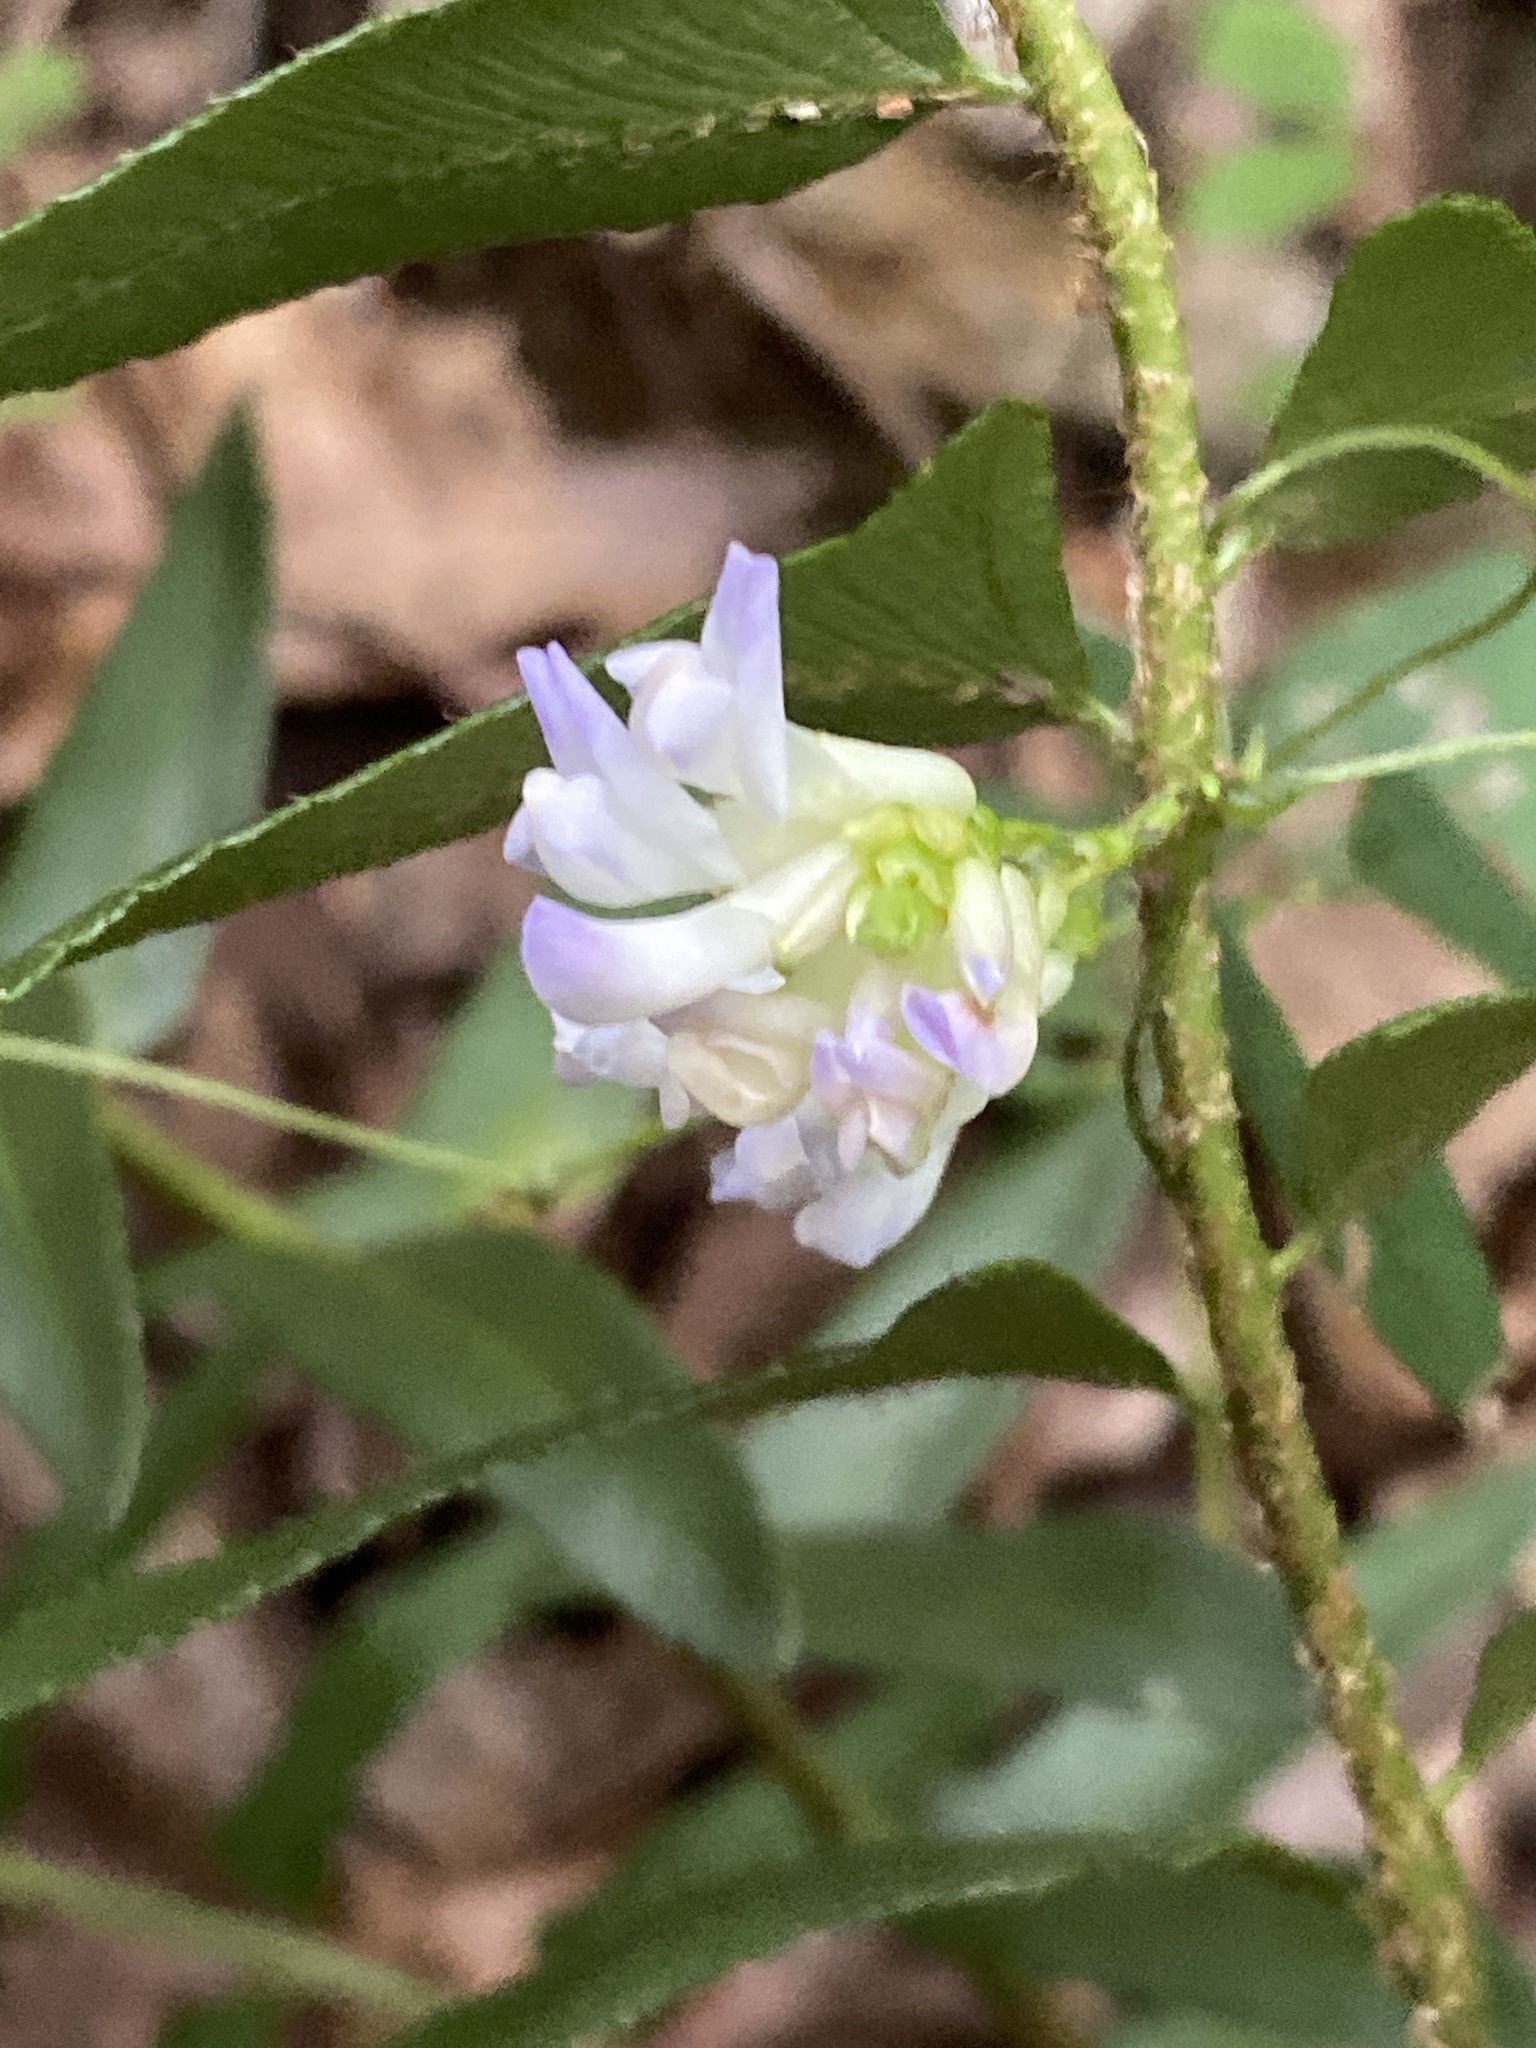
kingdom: Plantae
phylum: Tracheophyta
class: Magnoliopsida
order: Fabales
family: Fabaceae
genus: Amphicarpaea
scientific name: Amphicarpaea bracteata
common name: American hog peanut
